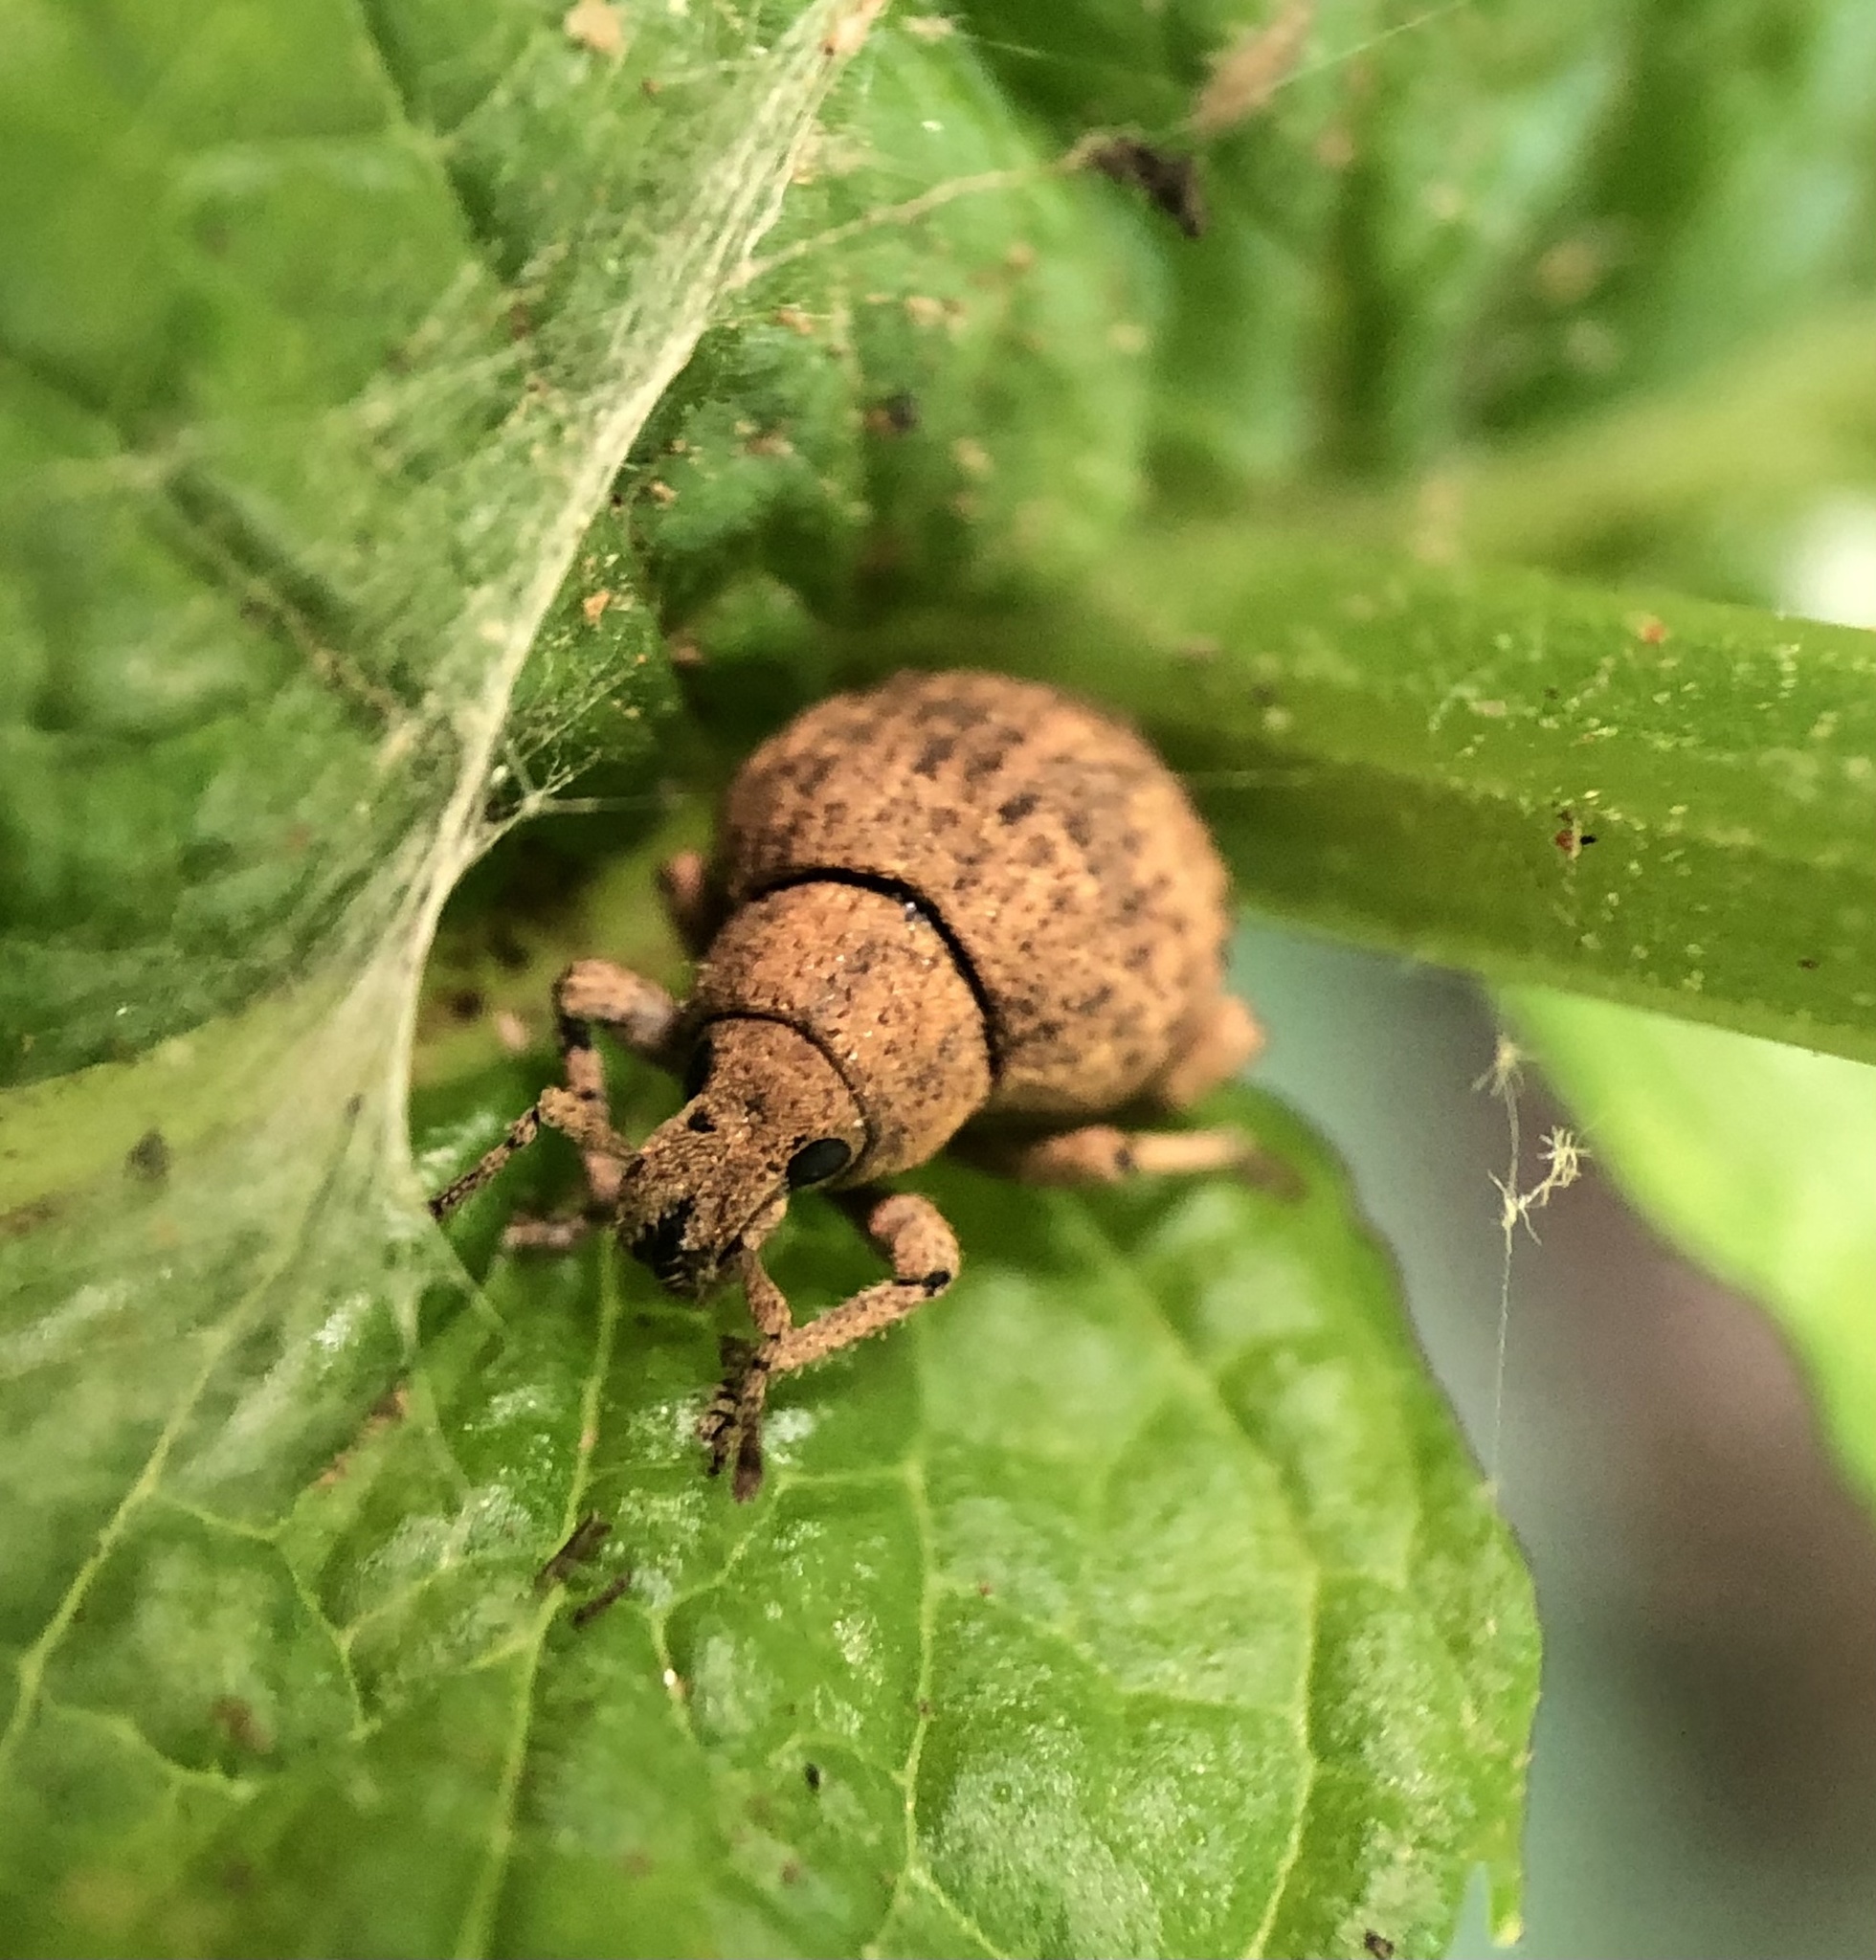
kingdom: Animalia
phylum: Arthropoda
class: Insecta
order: Coleoptera
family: Curculionidae
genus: Pseudocneorhinus
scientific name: Pseudocneorhinus bifasciatus
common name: Two-banded japanese weevil
